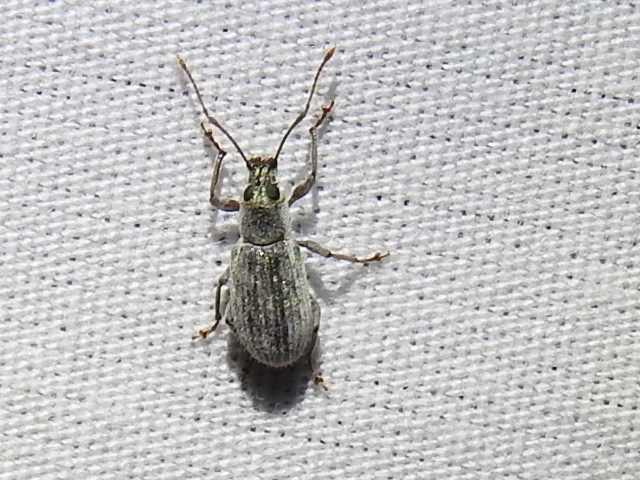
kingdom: Animalia
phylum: Arthropoda
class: Insecta
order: Coleoptera
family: Curculionidae
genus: Cyrtepistomus
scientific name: Cyrtepistomus castaneus
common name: Weevil
